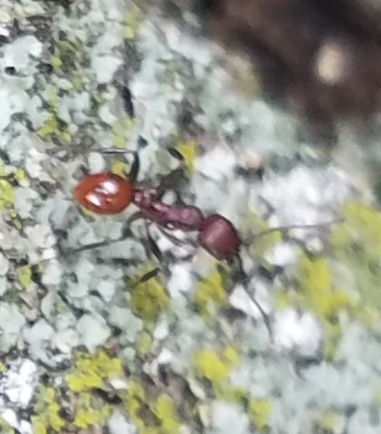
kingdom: Animalia
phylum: Arthropoda
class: Insecta
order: Hymenoptera
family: Formicidae
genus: Aphaenogaster
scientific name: Aphaenogaster tennesseensis
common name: Tennessee thread-waisted ant
